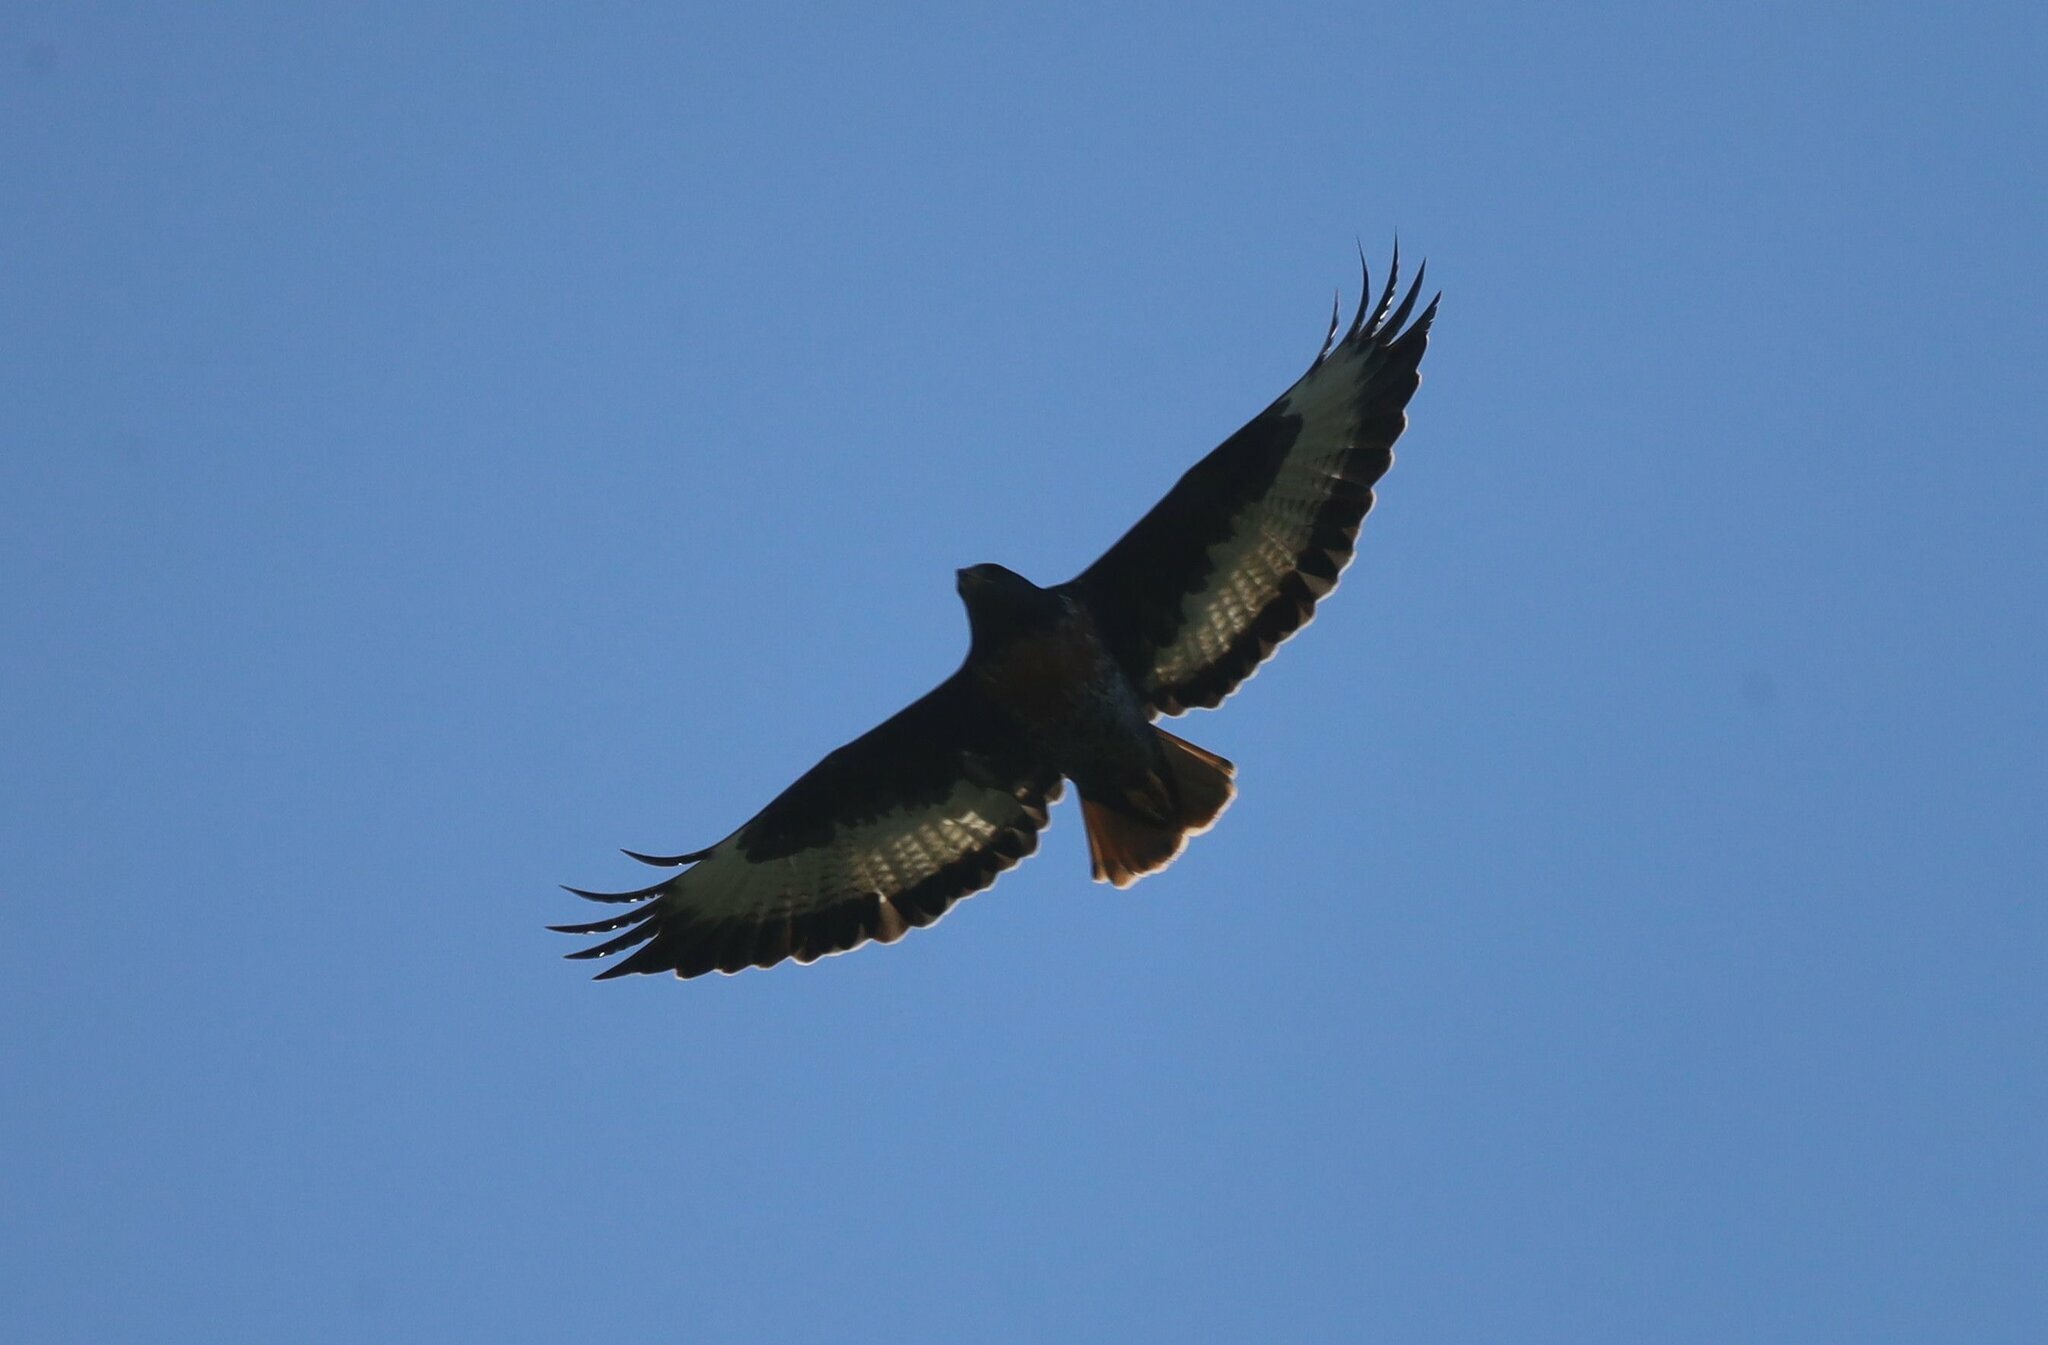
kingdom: Animalia
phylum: Chordata
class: Aves
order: Accipitriformes
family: Accipitridae
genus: Buteo
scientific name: Buteo rufofuscus
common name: Jackal buzzard
